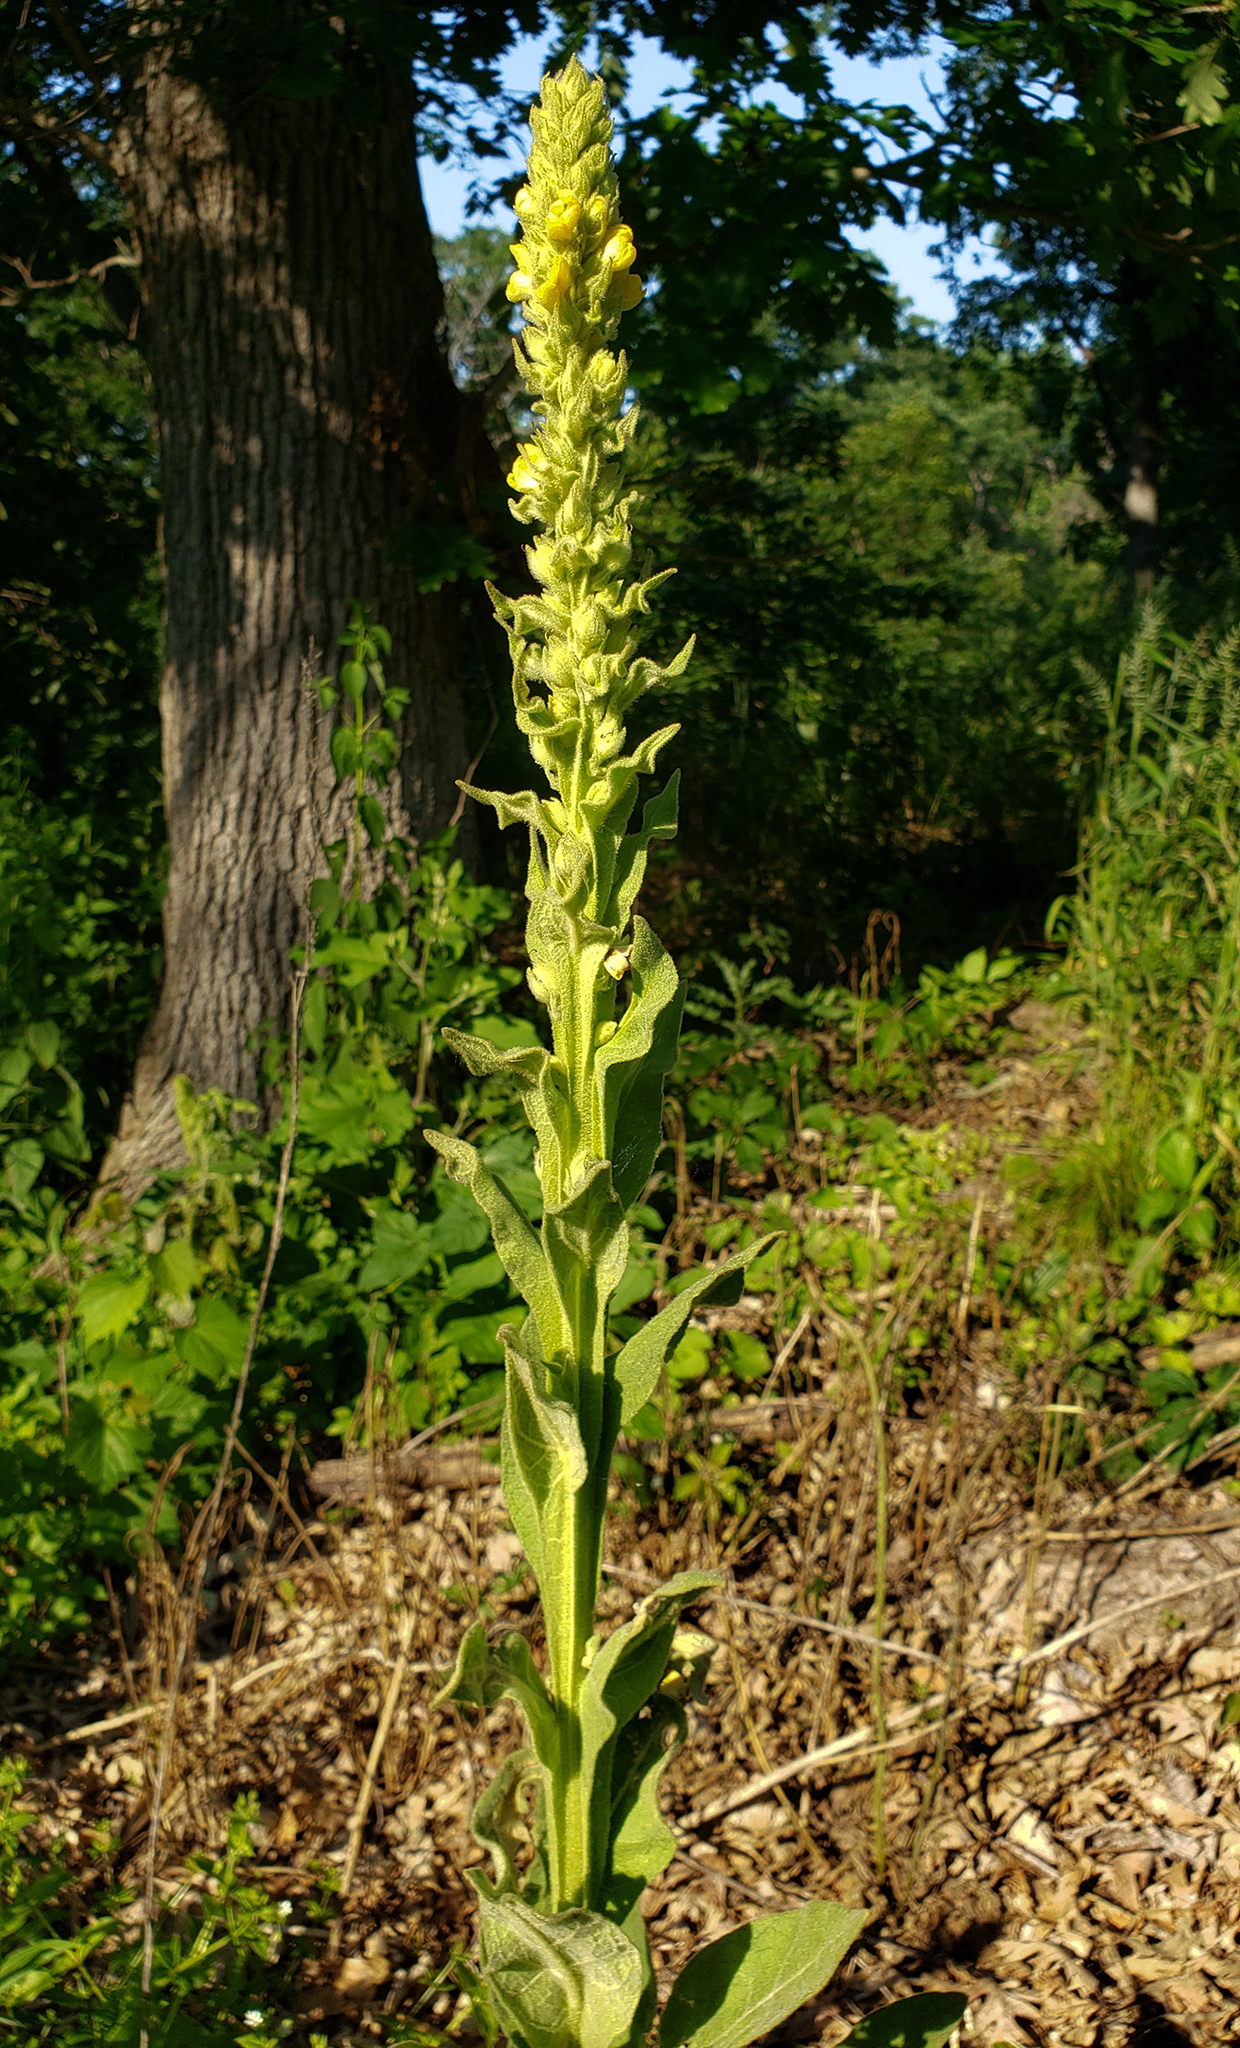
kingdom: Plantae
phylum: Tracheophyta
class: Magnoliopsida
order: Lamiales
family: Scrophulariaceae
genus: Verbascum
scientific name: Verbascum thapsus
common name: Common mullein
